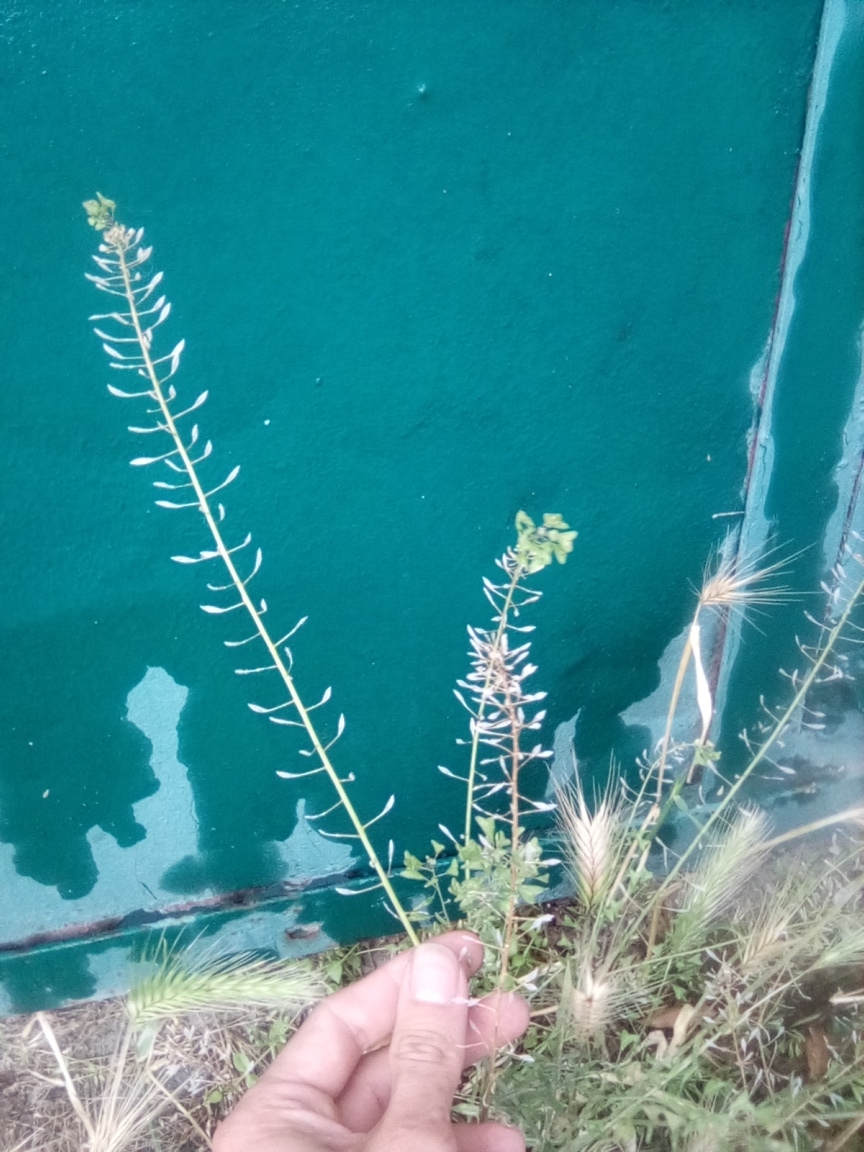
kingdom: Plantae
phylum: Tracheophyta
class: Magnoliopsida
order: Brassicales
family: Brassicaceae
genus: Capsella
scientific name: Capsella bursa-pastoris
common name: Shepherd's purse
